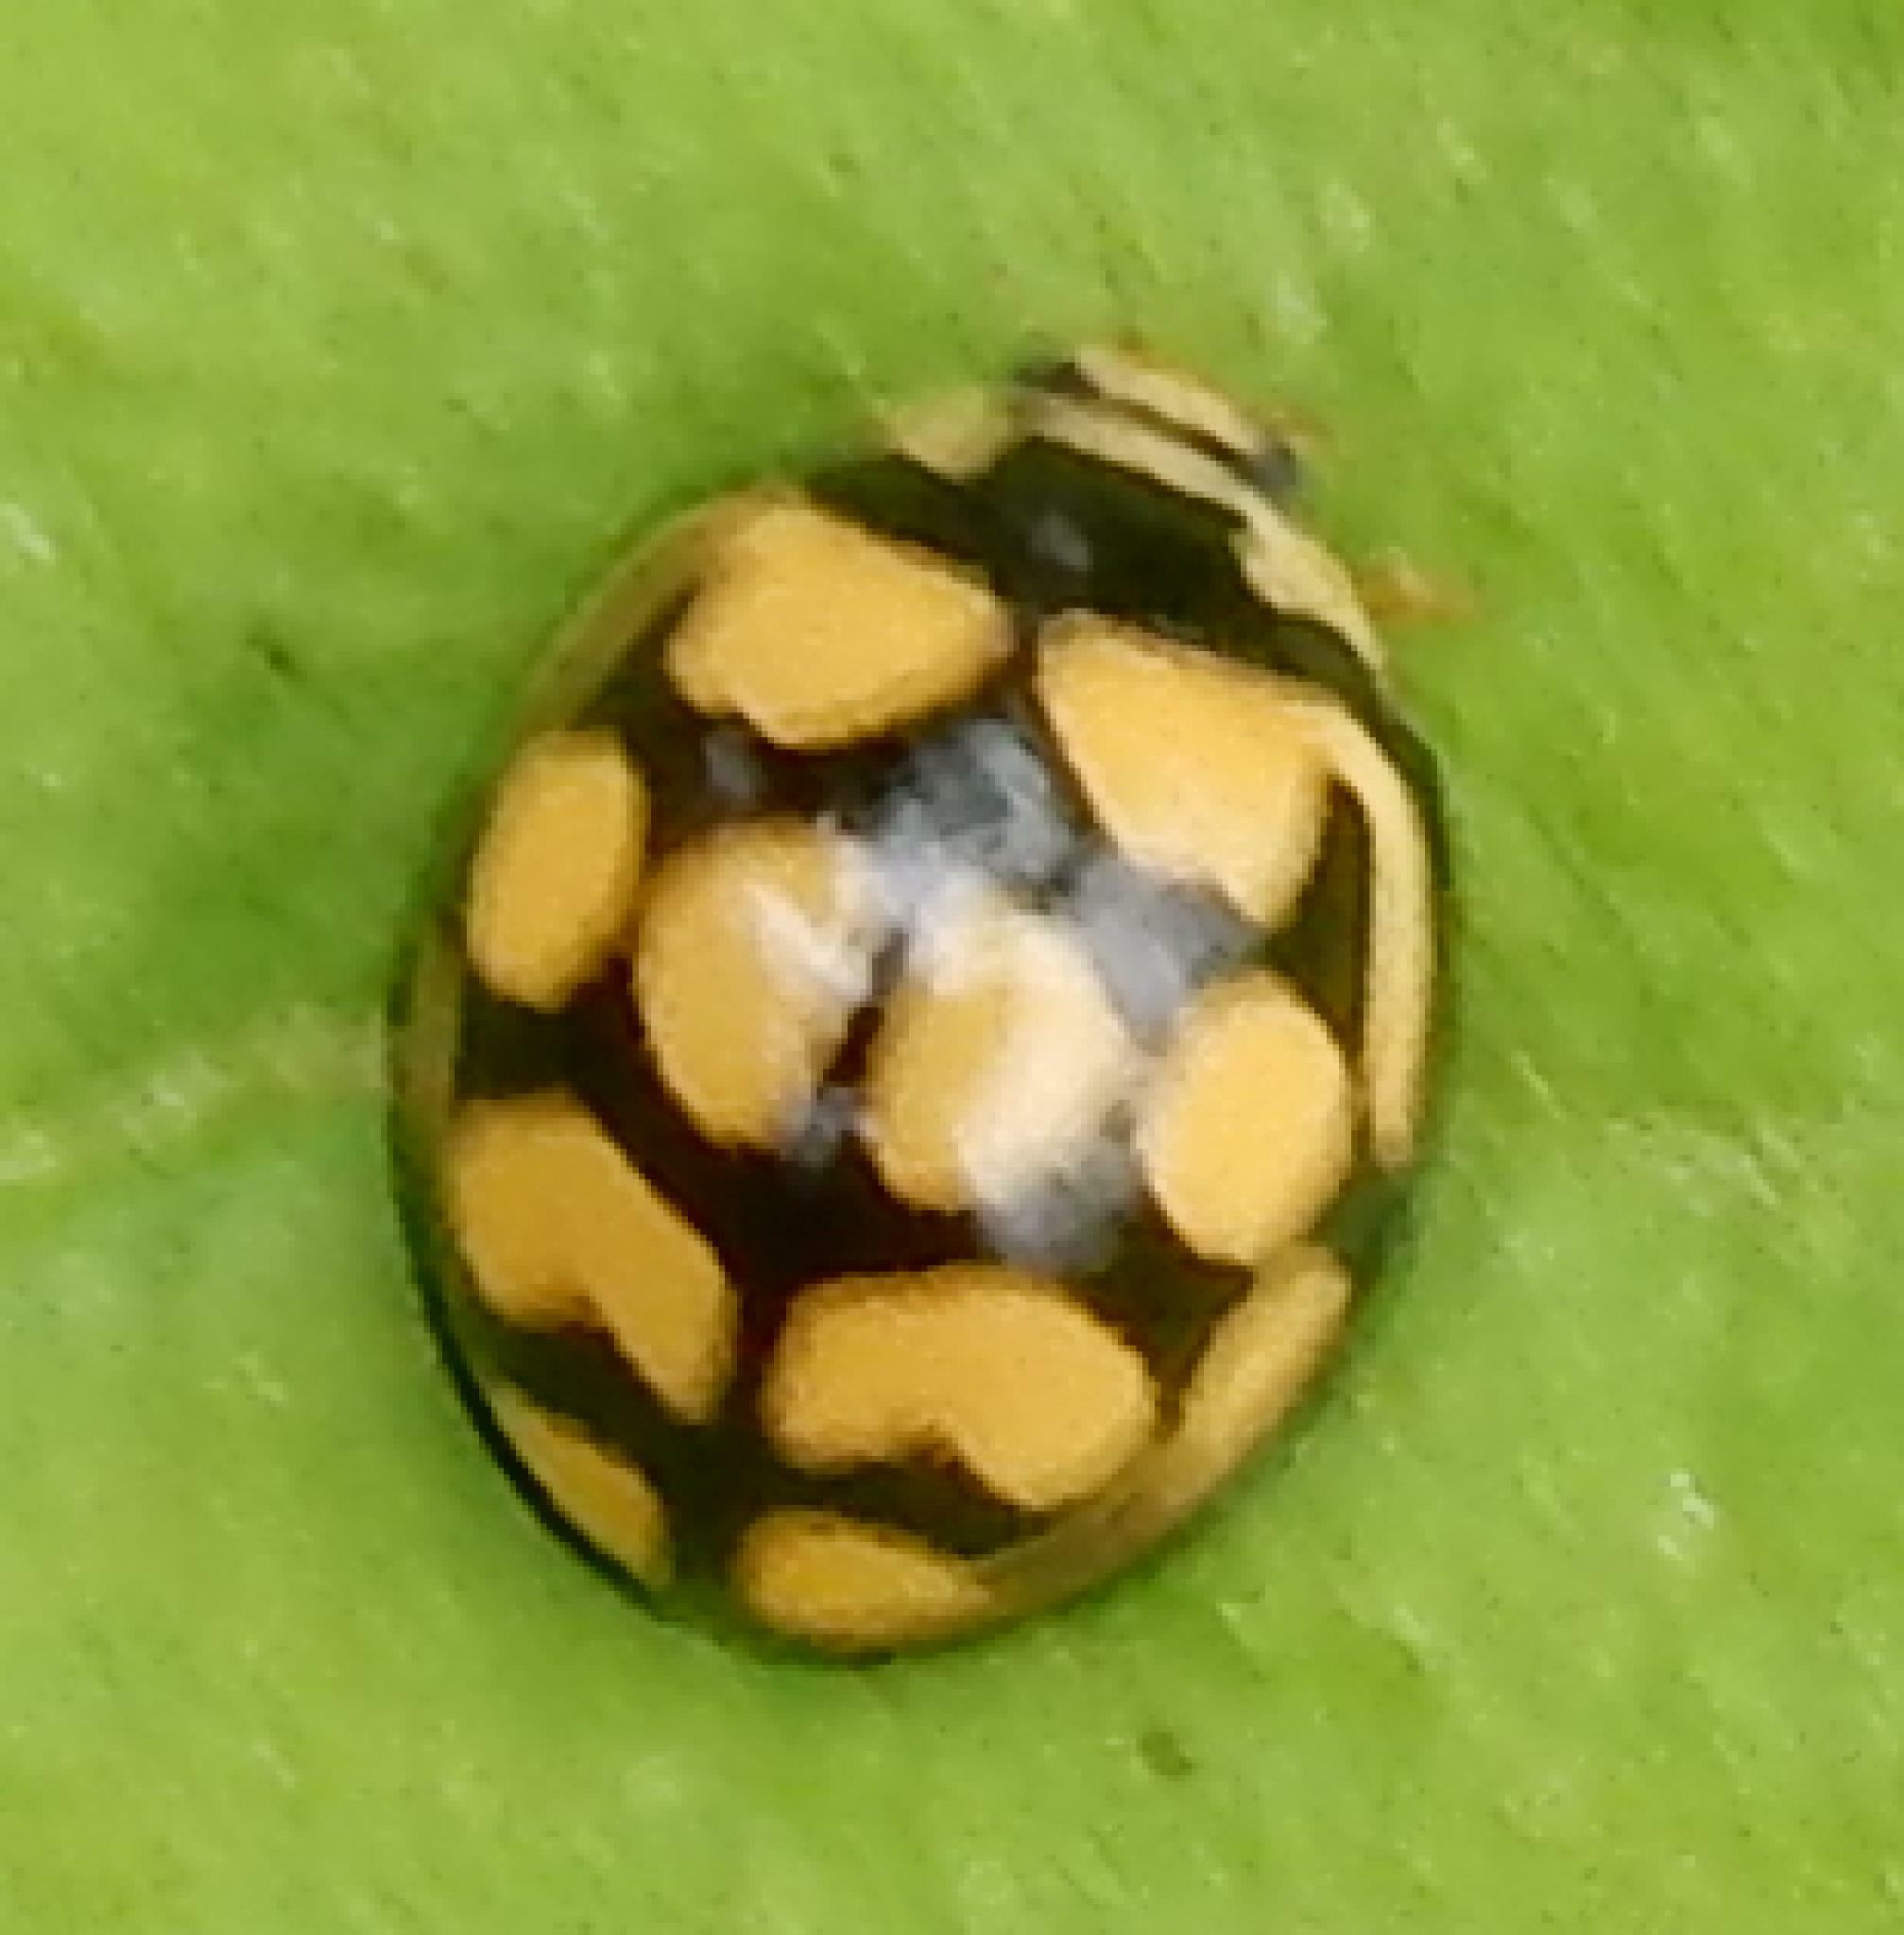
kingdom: Animalia
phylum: Arthropoda
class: Insecta
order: Coleoptera
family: Coccinellidae
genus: Cheilomenes
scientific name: Cheilomenes lunata
